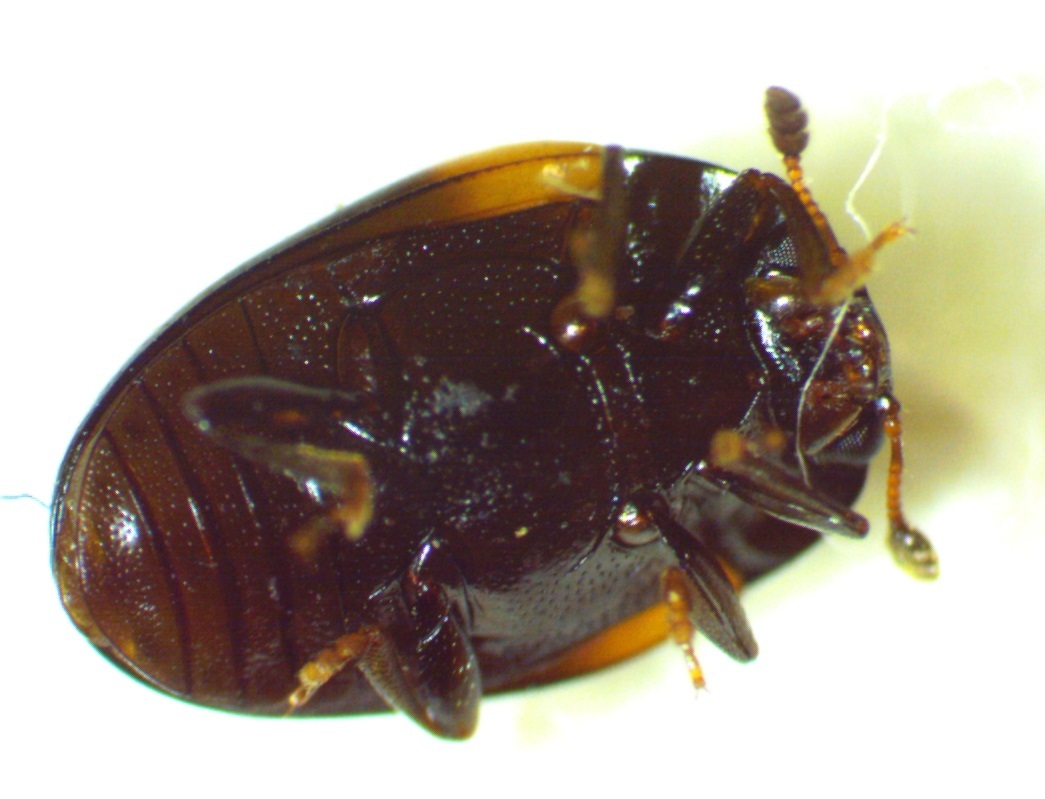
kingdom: Animalia
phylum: Arthropoda
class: Insecta
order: Coleoptera
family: Erotylidae
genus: Tritoma
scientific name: Tritoma pulchra
